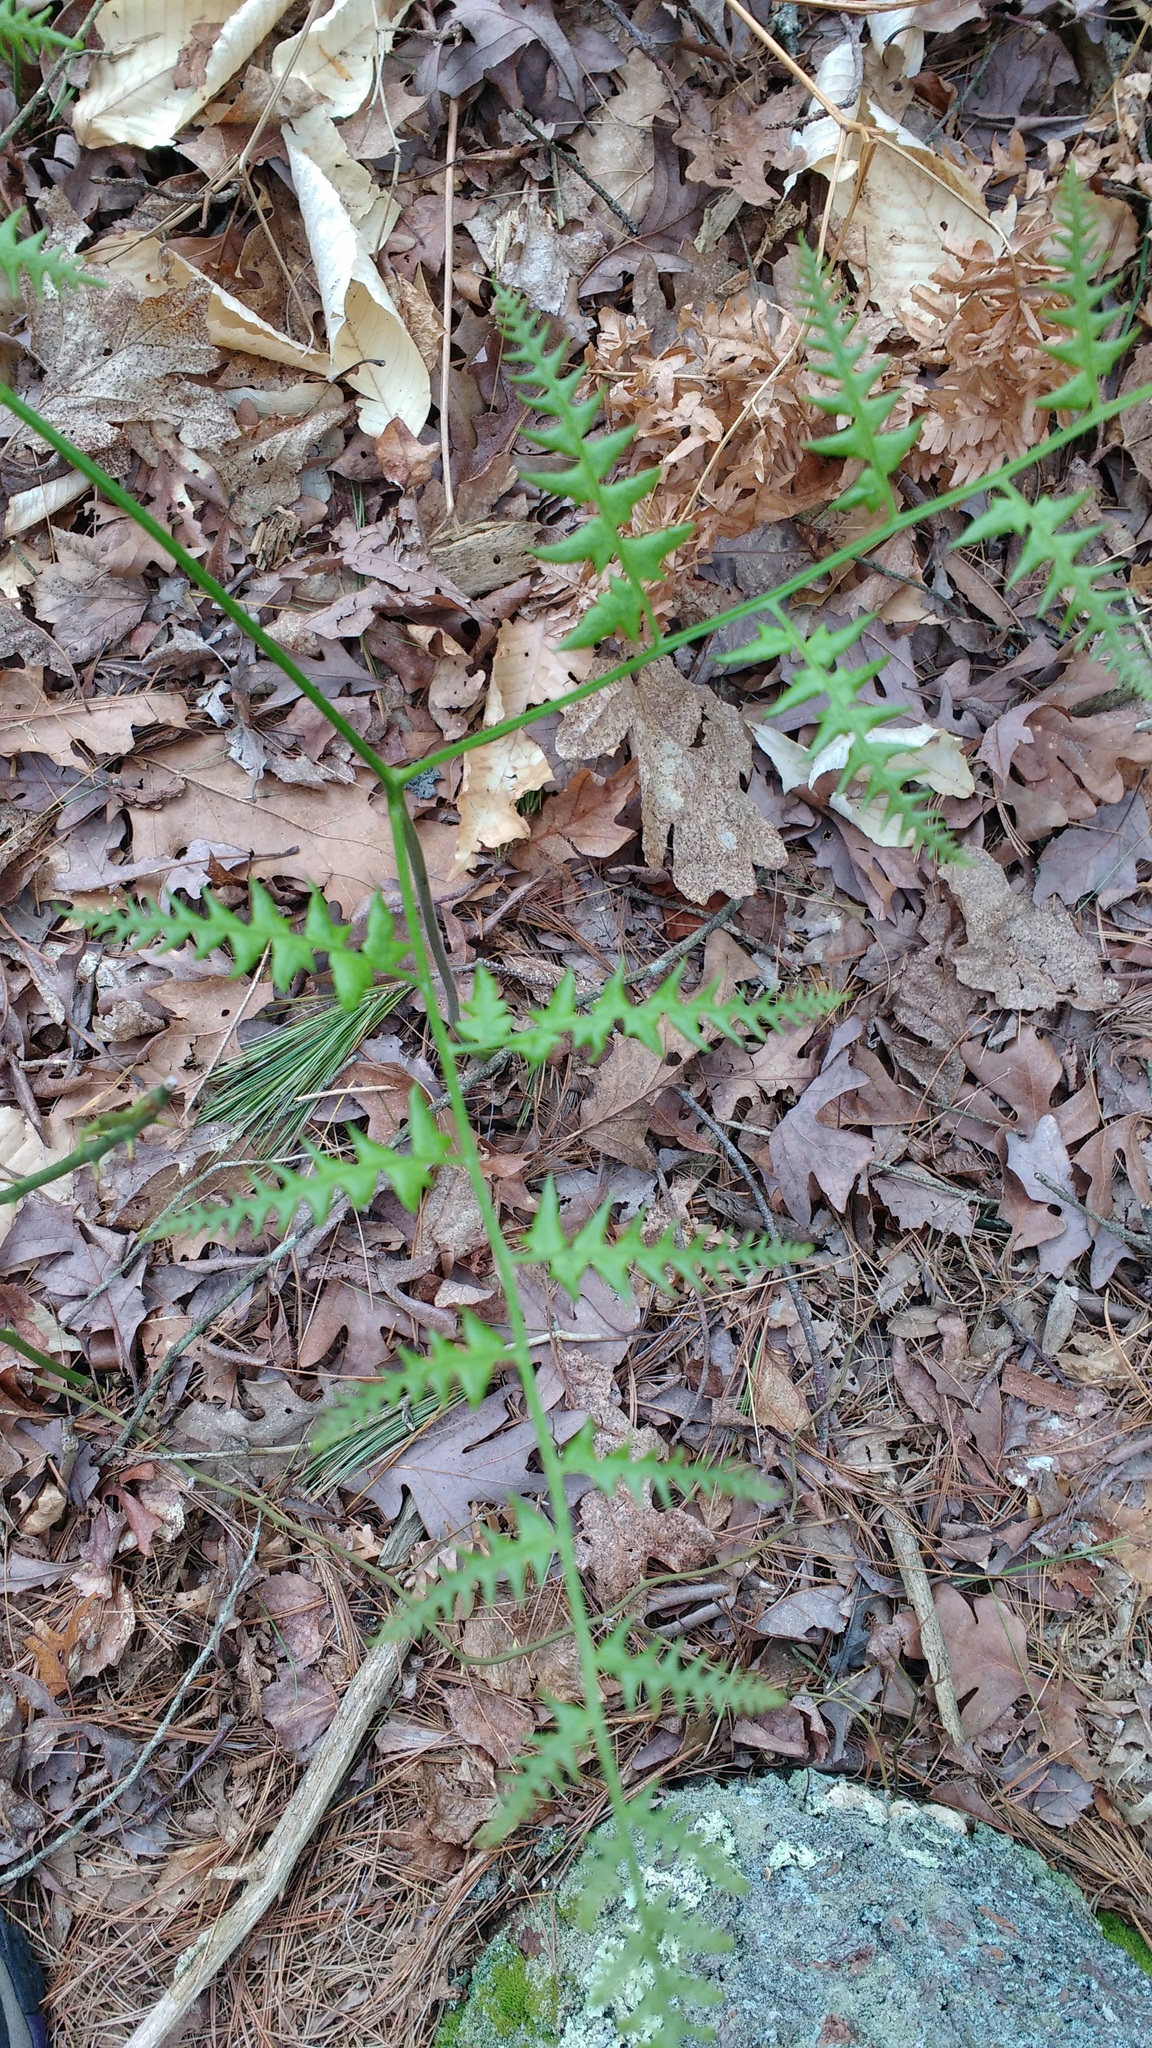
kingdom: Plantae
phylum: Tracheophyta
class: Polypodiopsida
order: Polypodiales
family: Dennstaedtiaceae
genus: Pteridium
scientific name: Pteridium aquilinum
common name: Bracken
